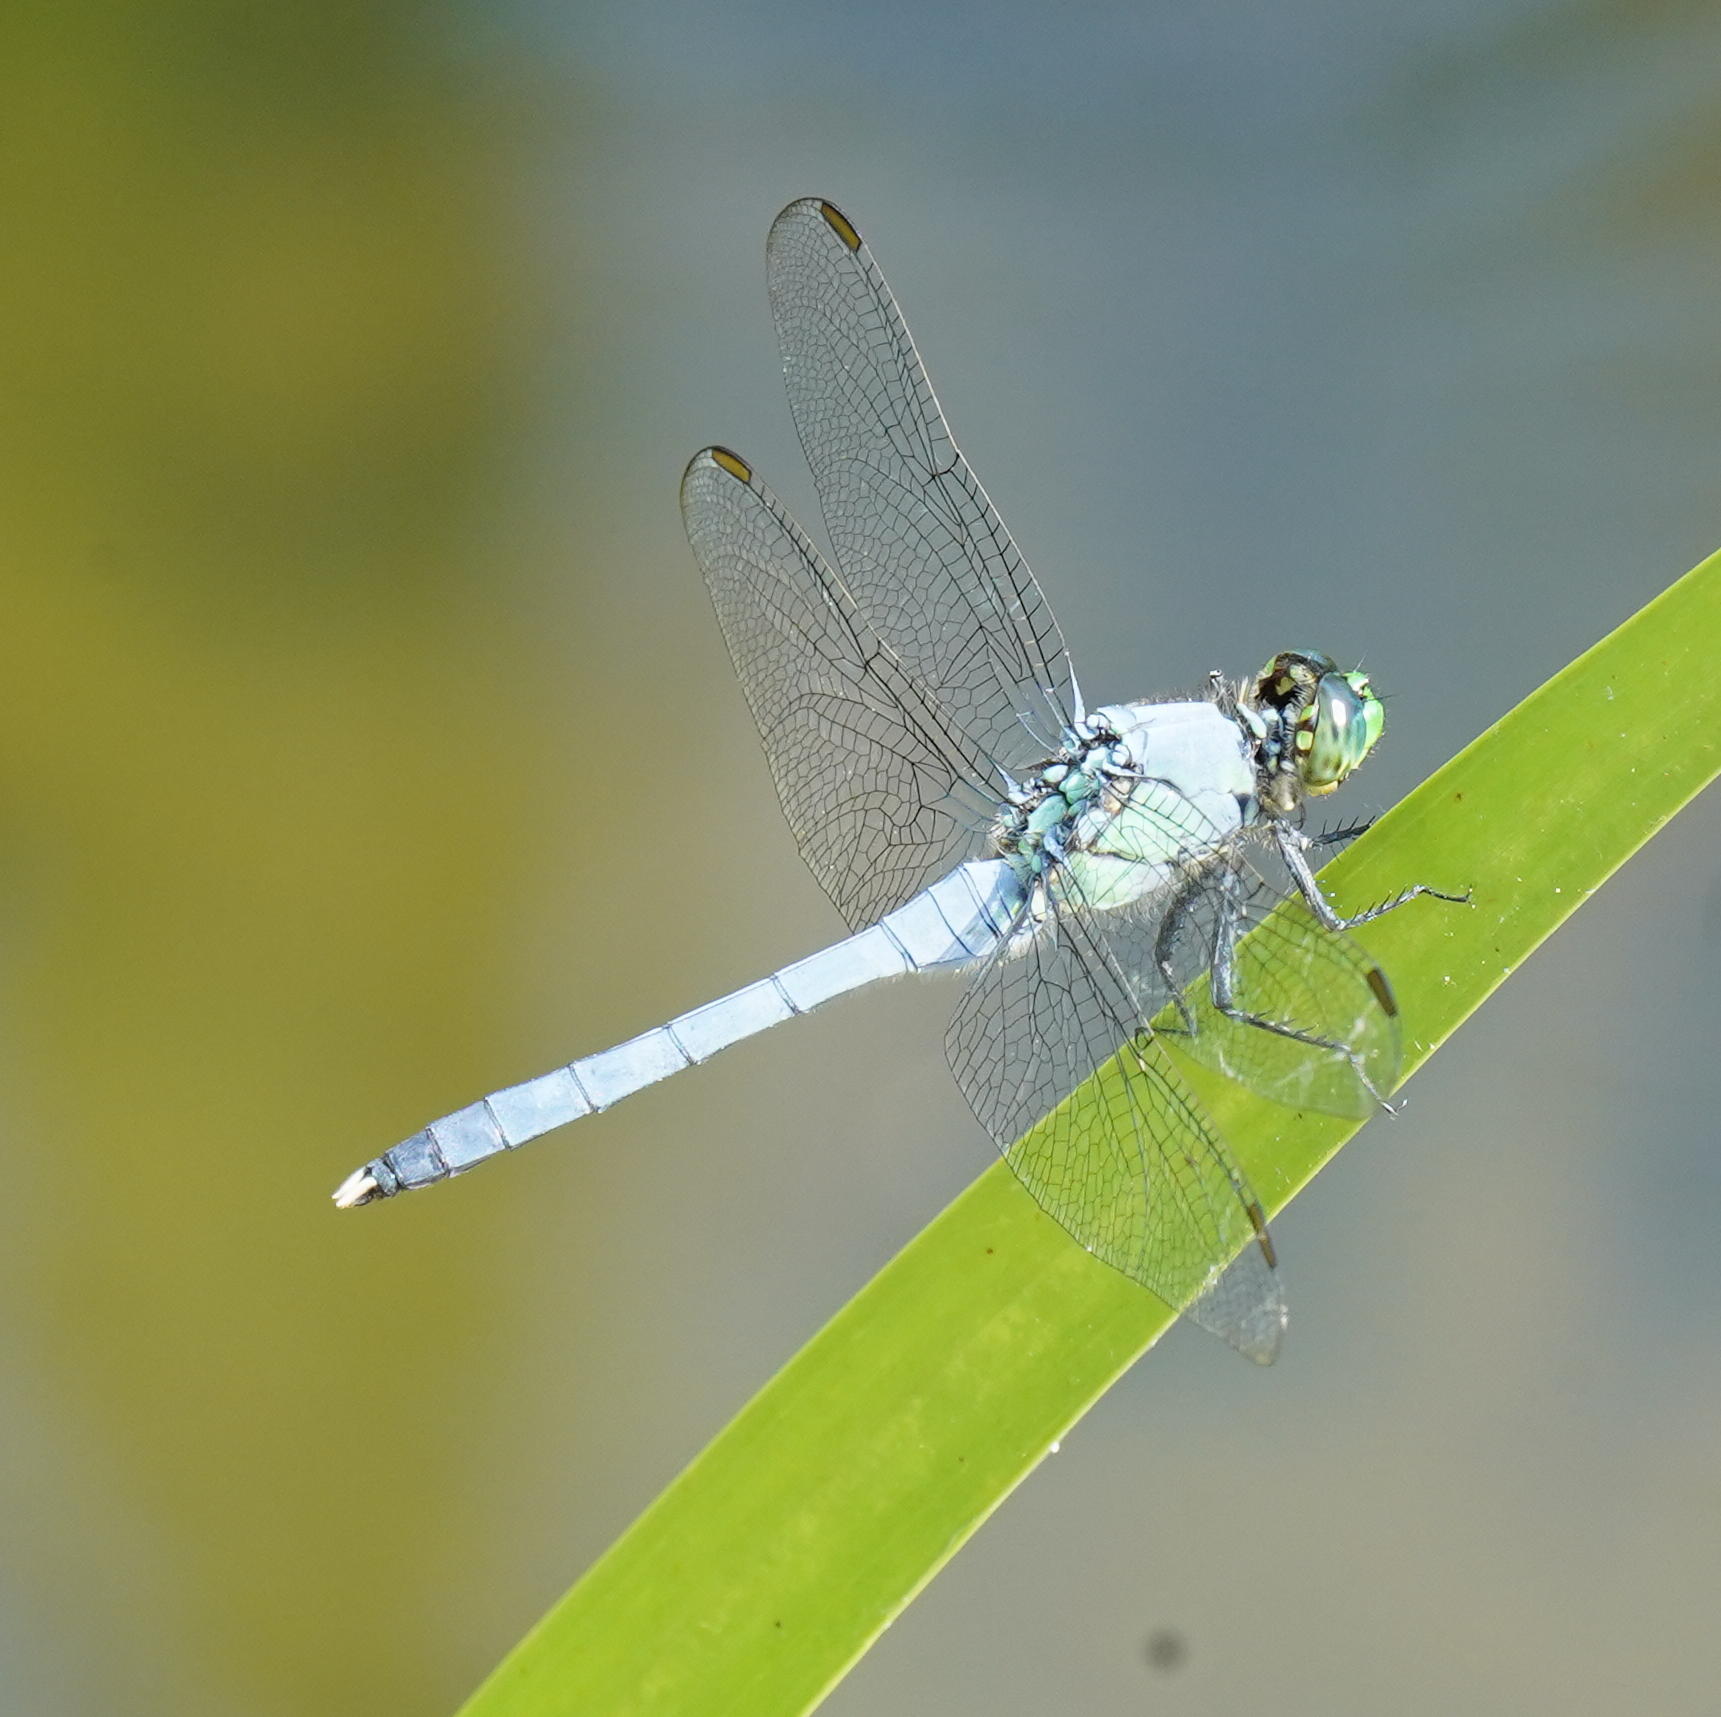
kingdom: Animalia
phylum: Arthropoda
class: Insecta
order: Odonata
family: Libellulidae
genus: Erythemis
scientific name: Erythemis simplicicollis
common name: Eastern pondhawk
